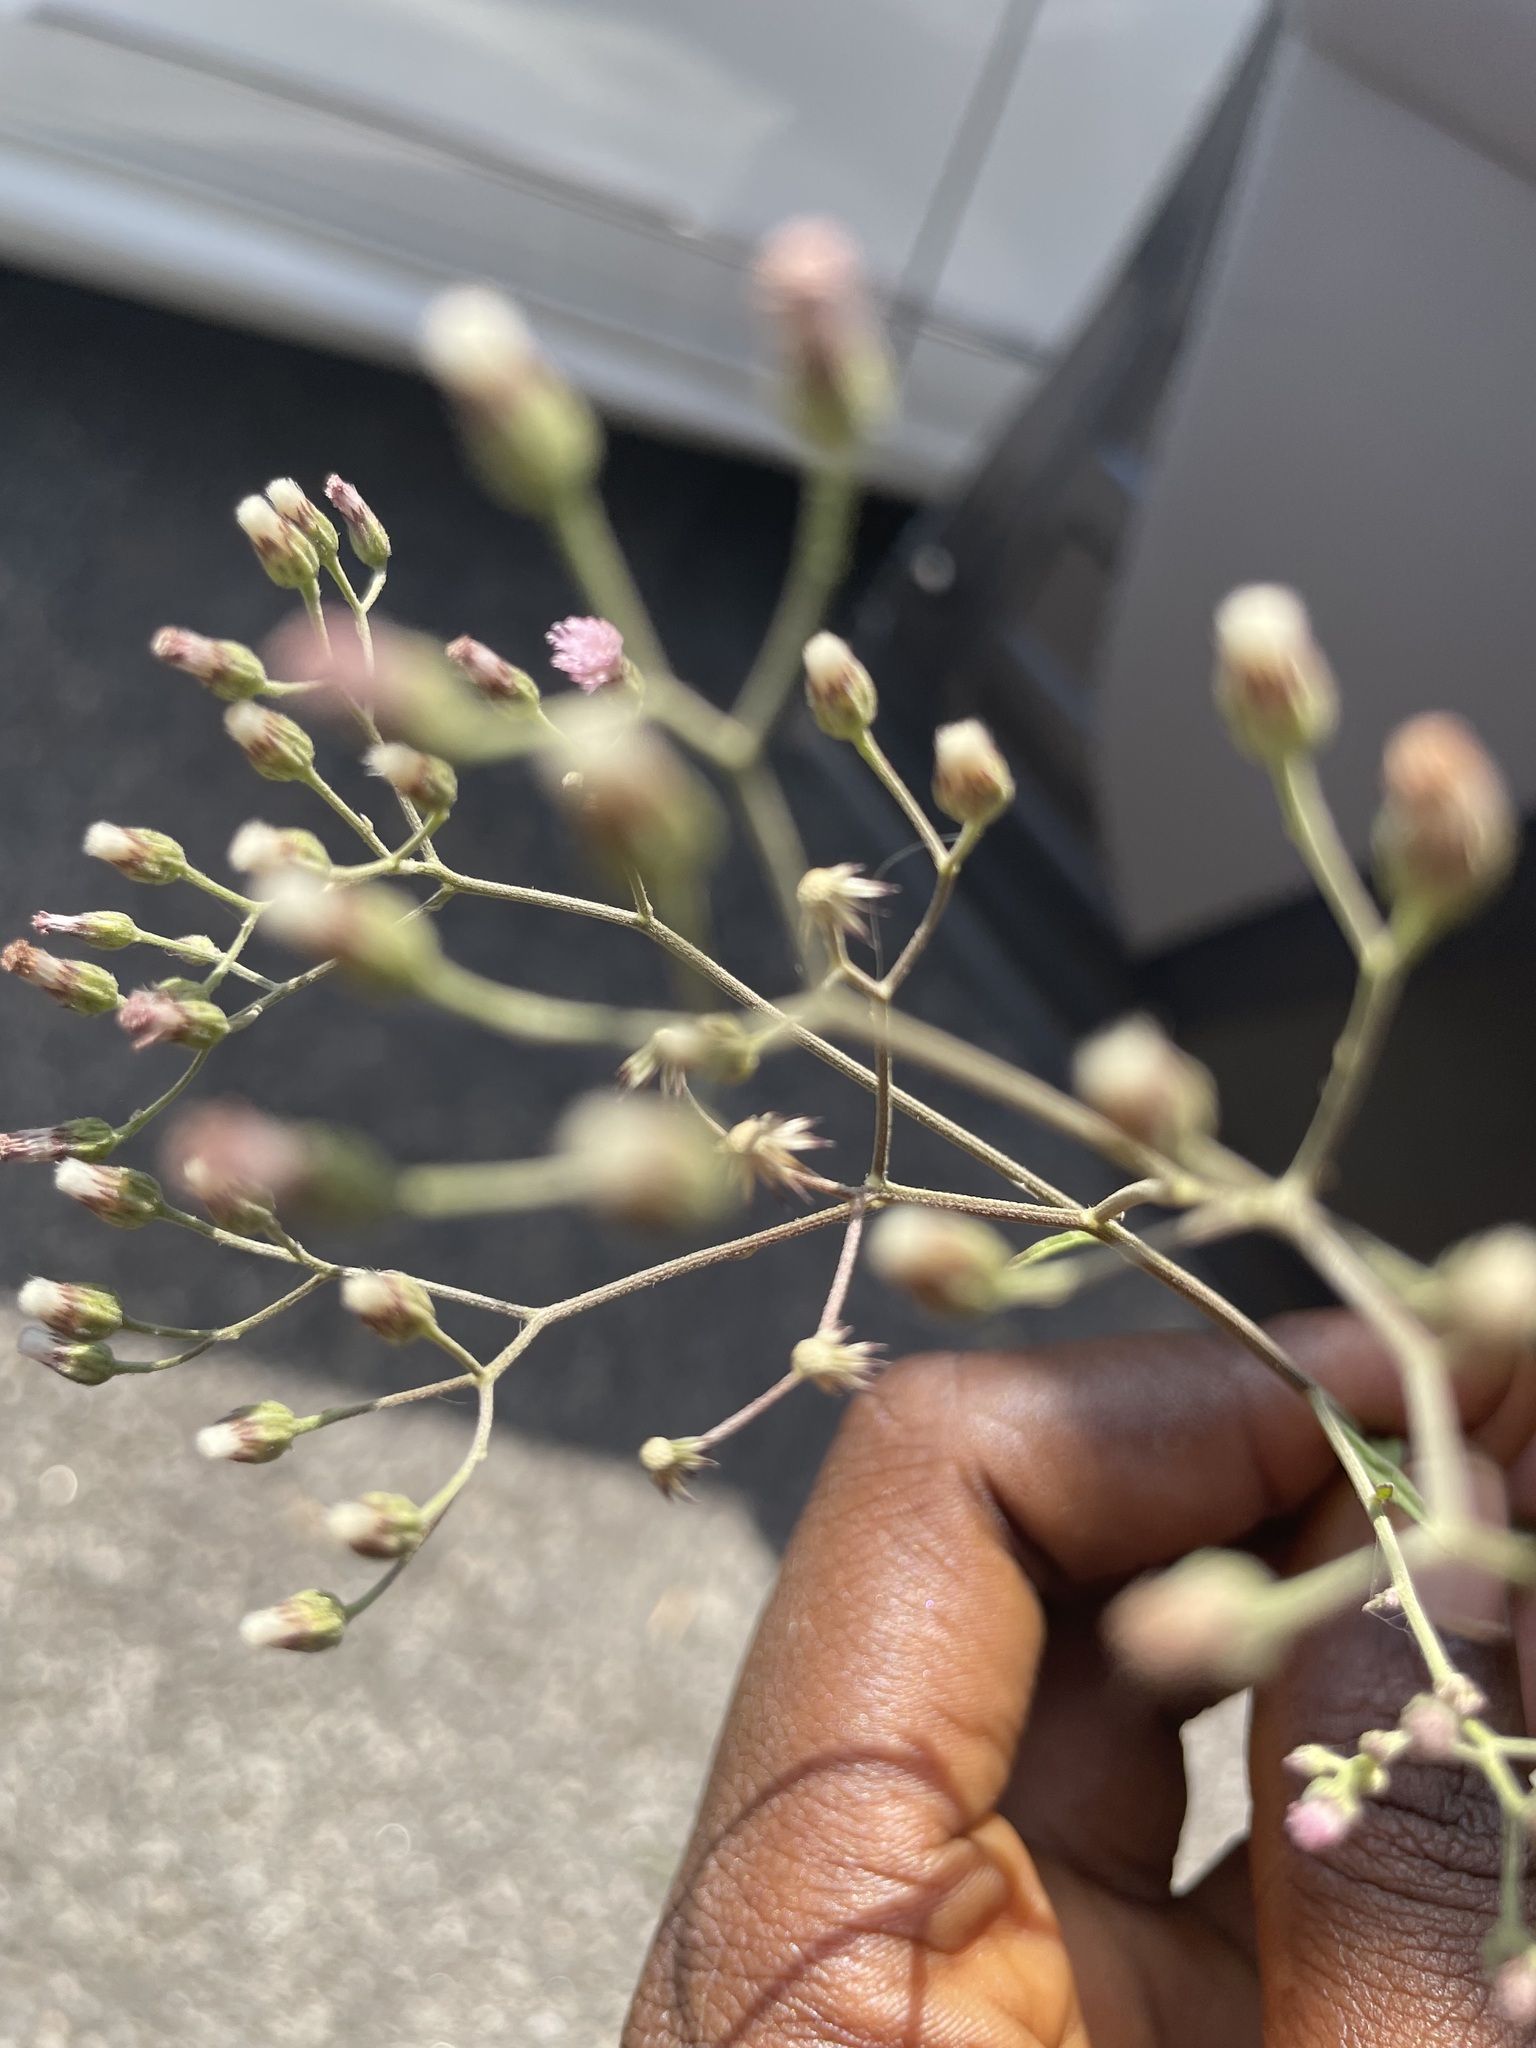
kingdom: Plantae
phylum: Tracheophyta
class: Magnoliopsida
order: Asterales
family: Asteraceae
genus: Cyanthillium
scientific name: Cyanthillium cinereum
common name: Little ironweed
